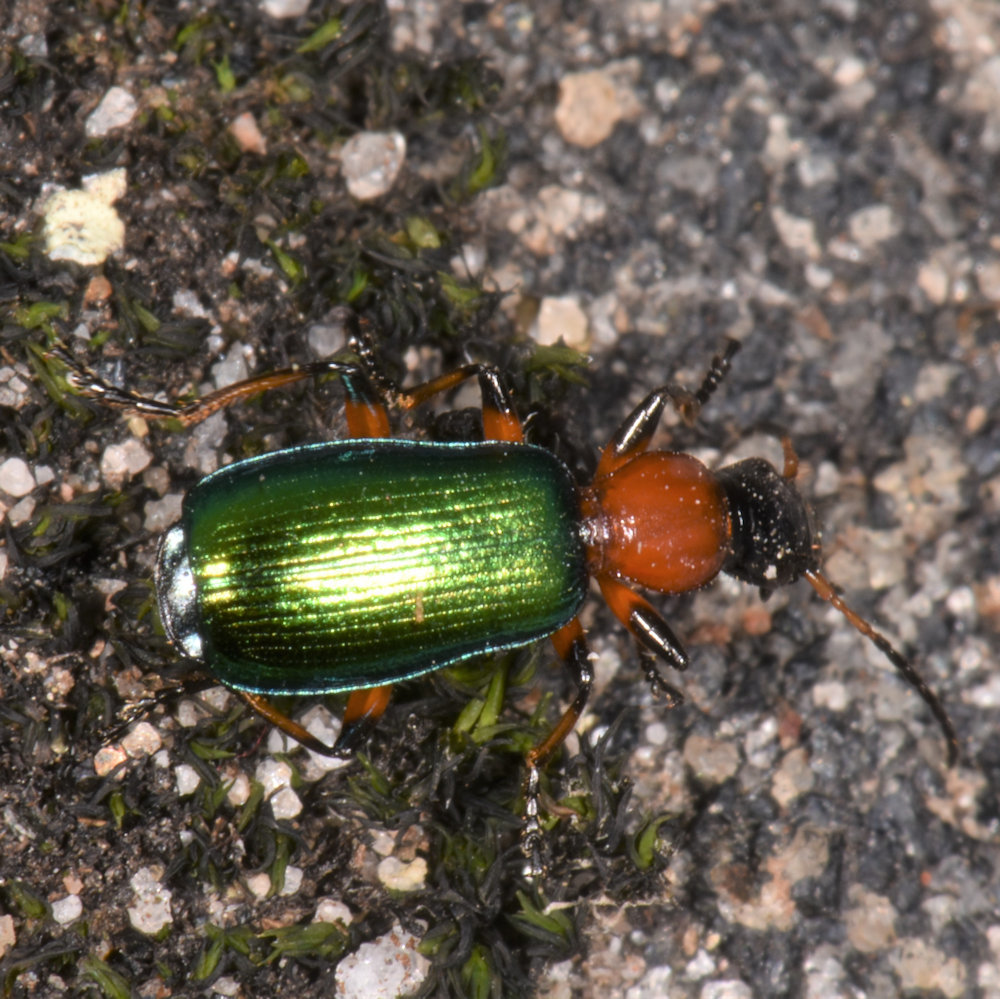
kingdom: Animalia
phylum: Arthropoda
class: Insecta
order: Coleoptera
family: Carabidae
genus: Calleida
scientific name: Calleida punctata
